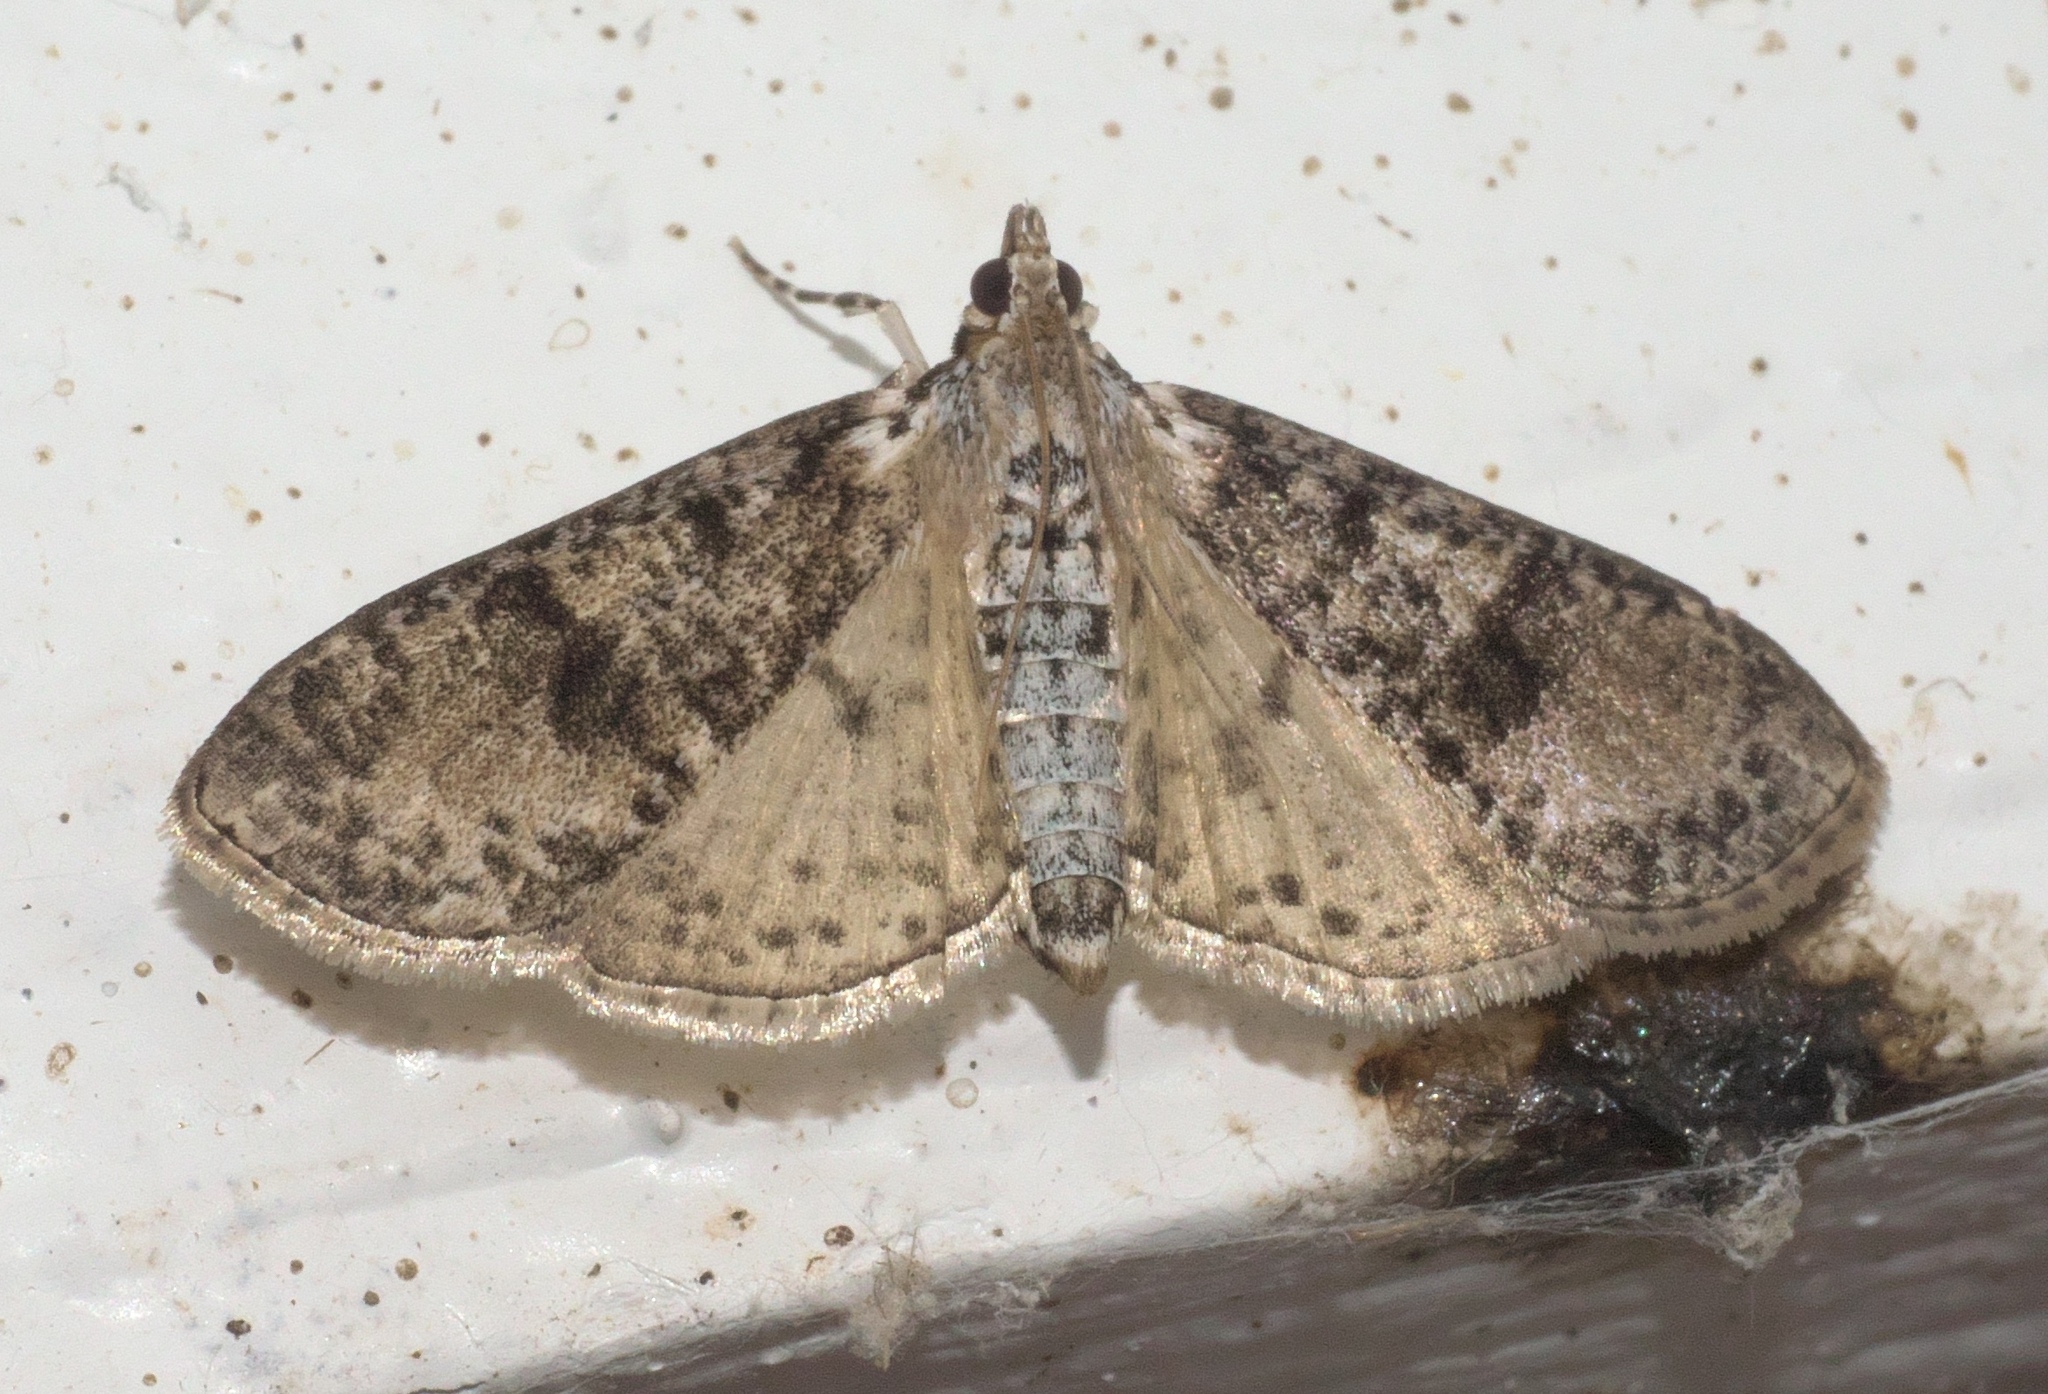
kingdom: Animalia
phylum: Arthropoda
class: Insecta
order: Lepidoptera
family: Crambidae
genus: Palpita
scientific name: Palpita magniferalis
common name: Splendid palpita moth
